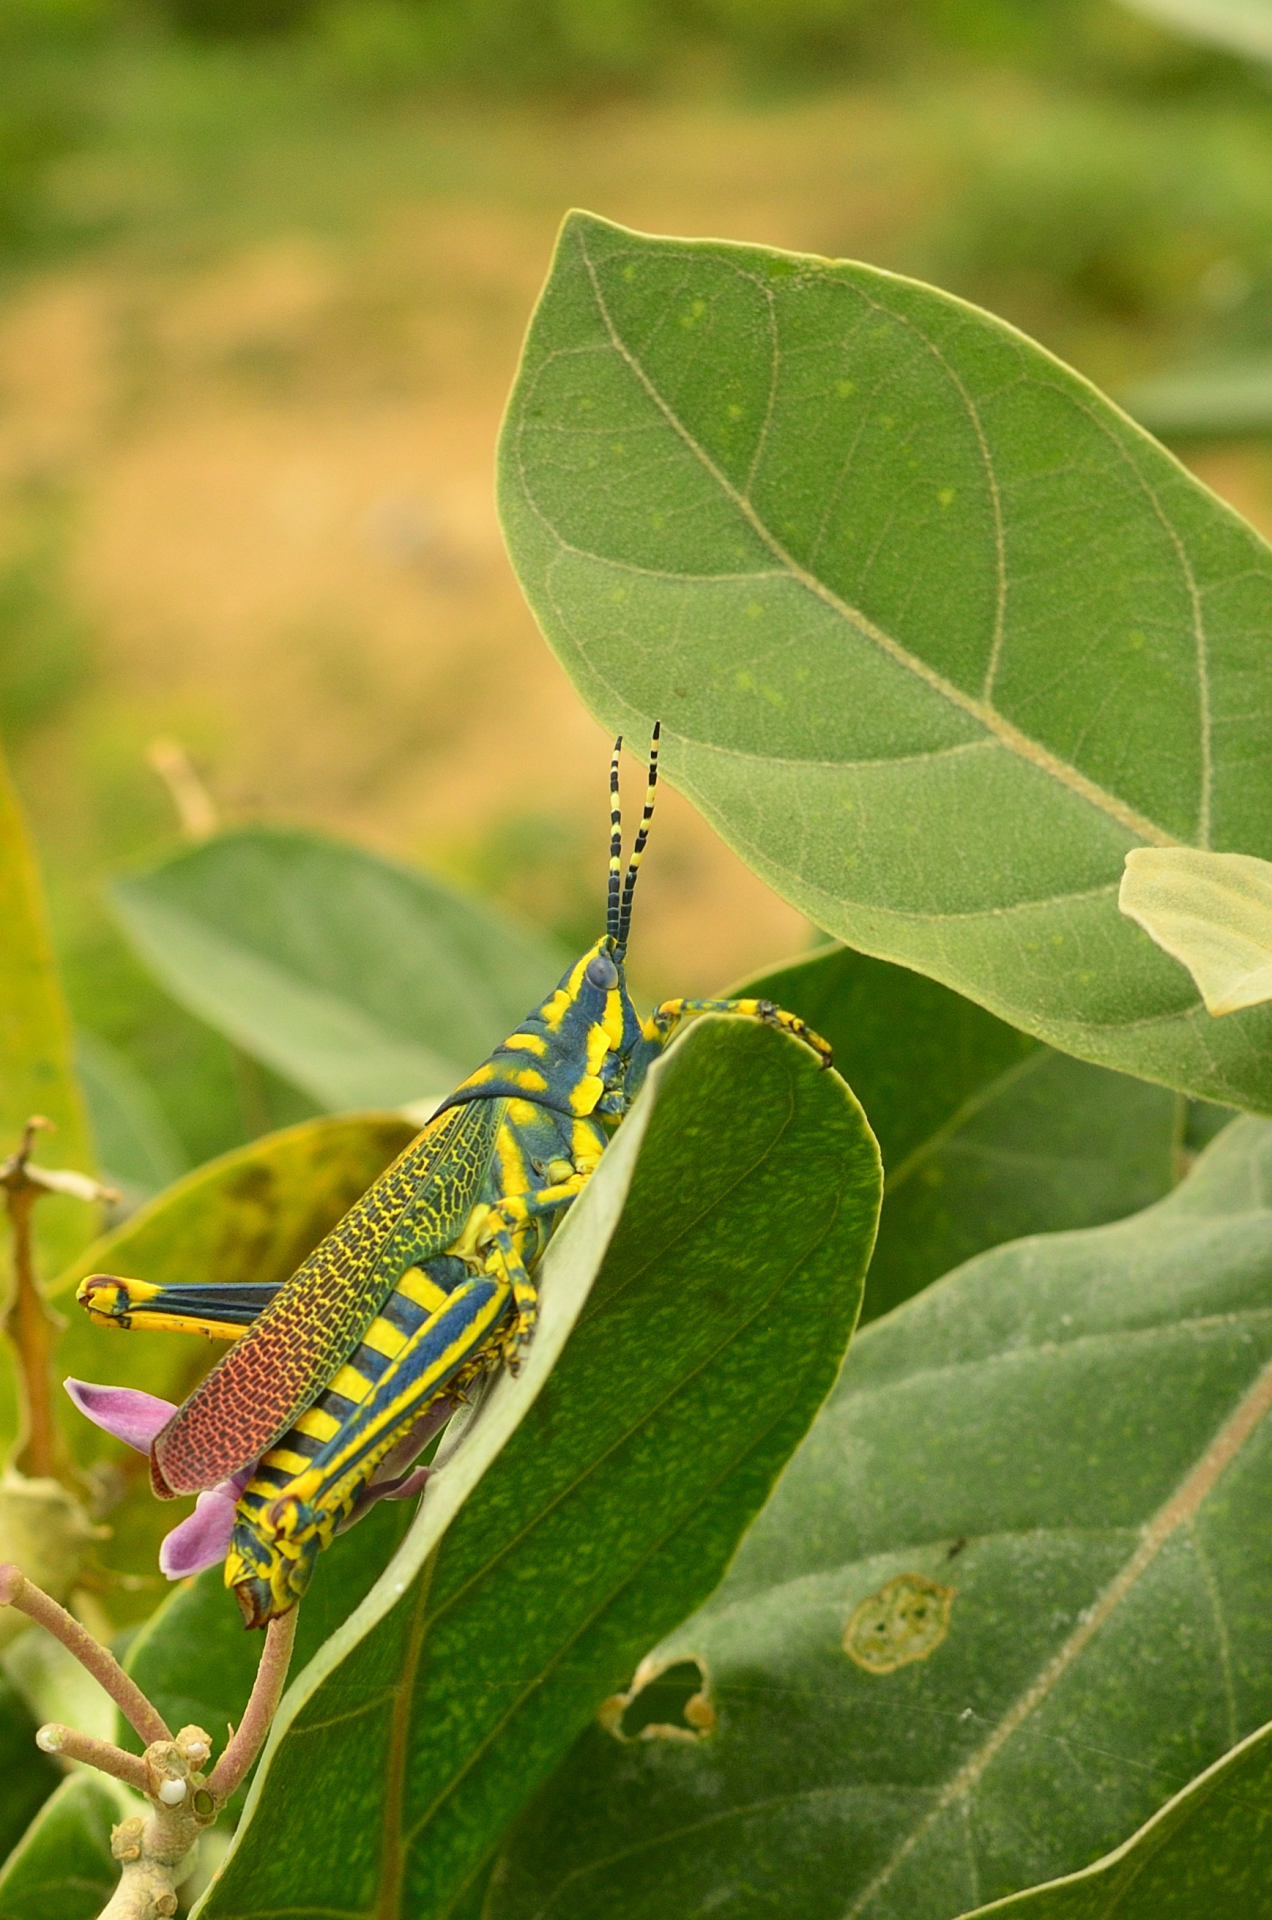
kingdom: Animalia
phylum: Arthropoda
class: Insecta
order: Orthoptera
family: Pyrgomorphidae
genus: Poekilocerus
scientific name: Poekilocerus pictus
